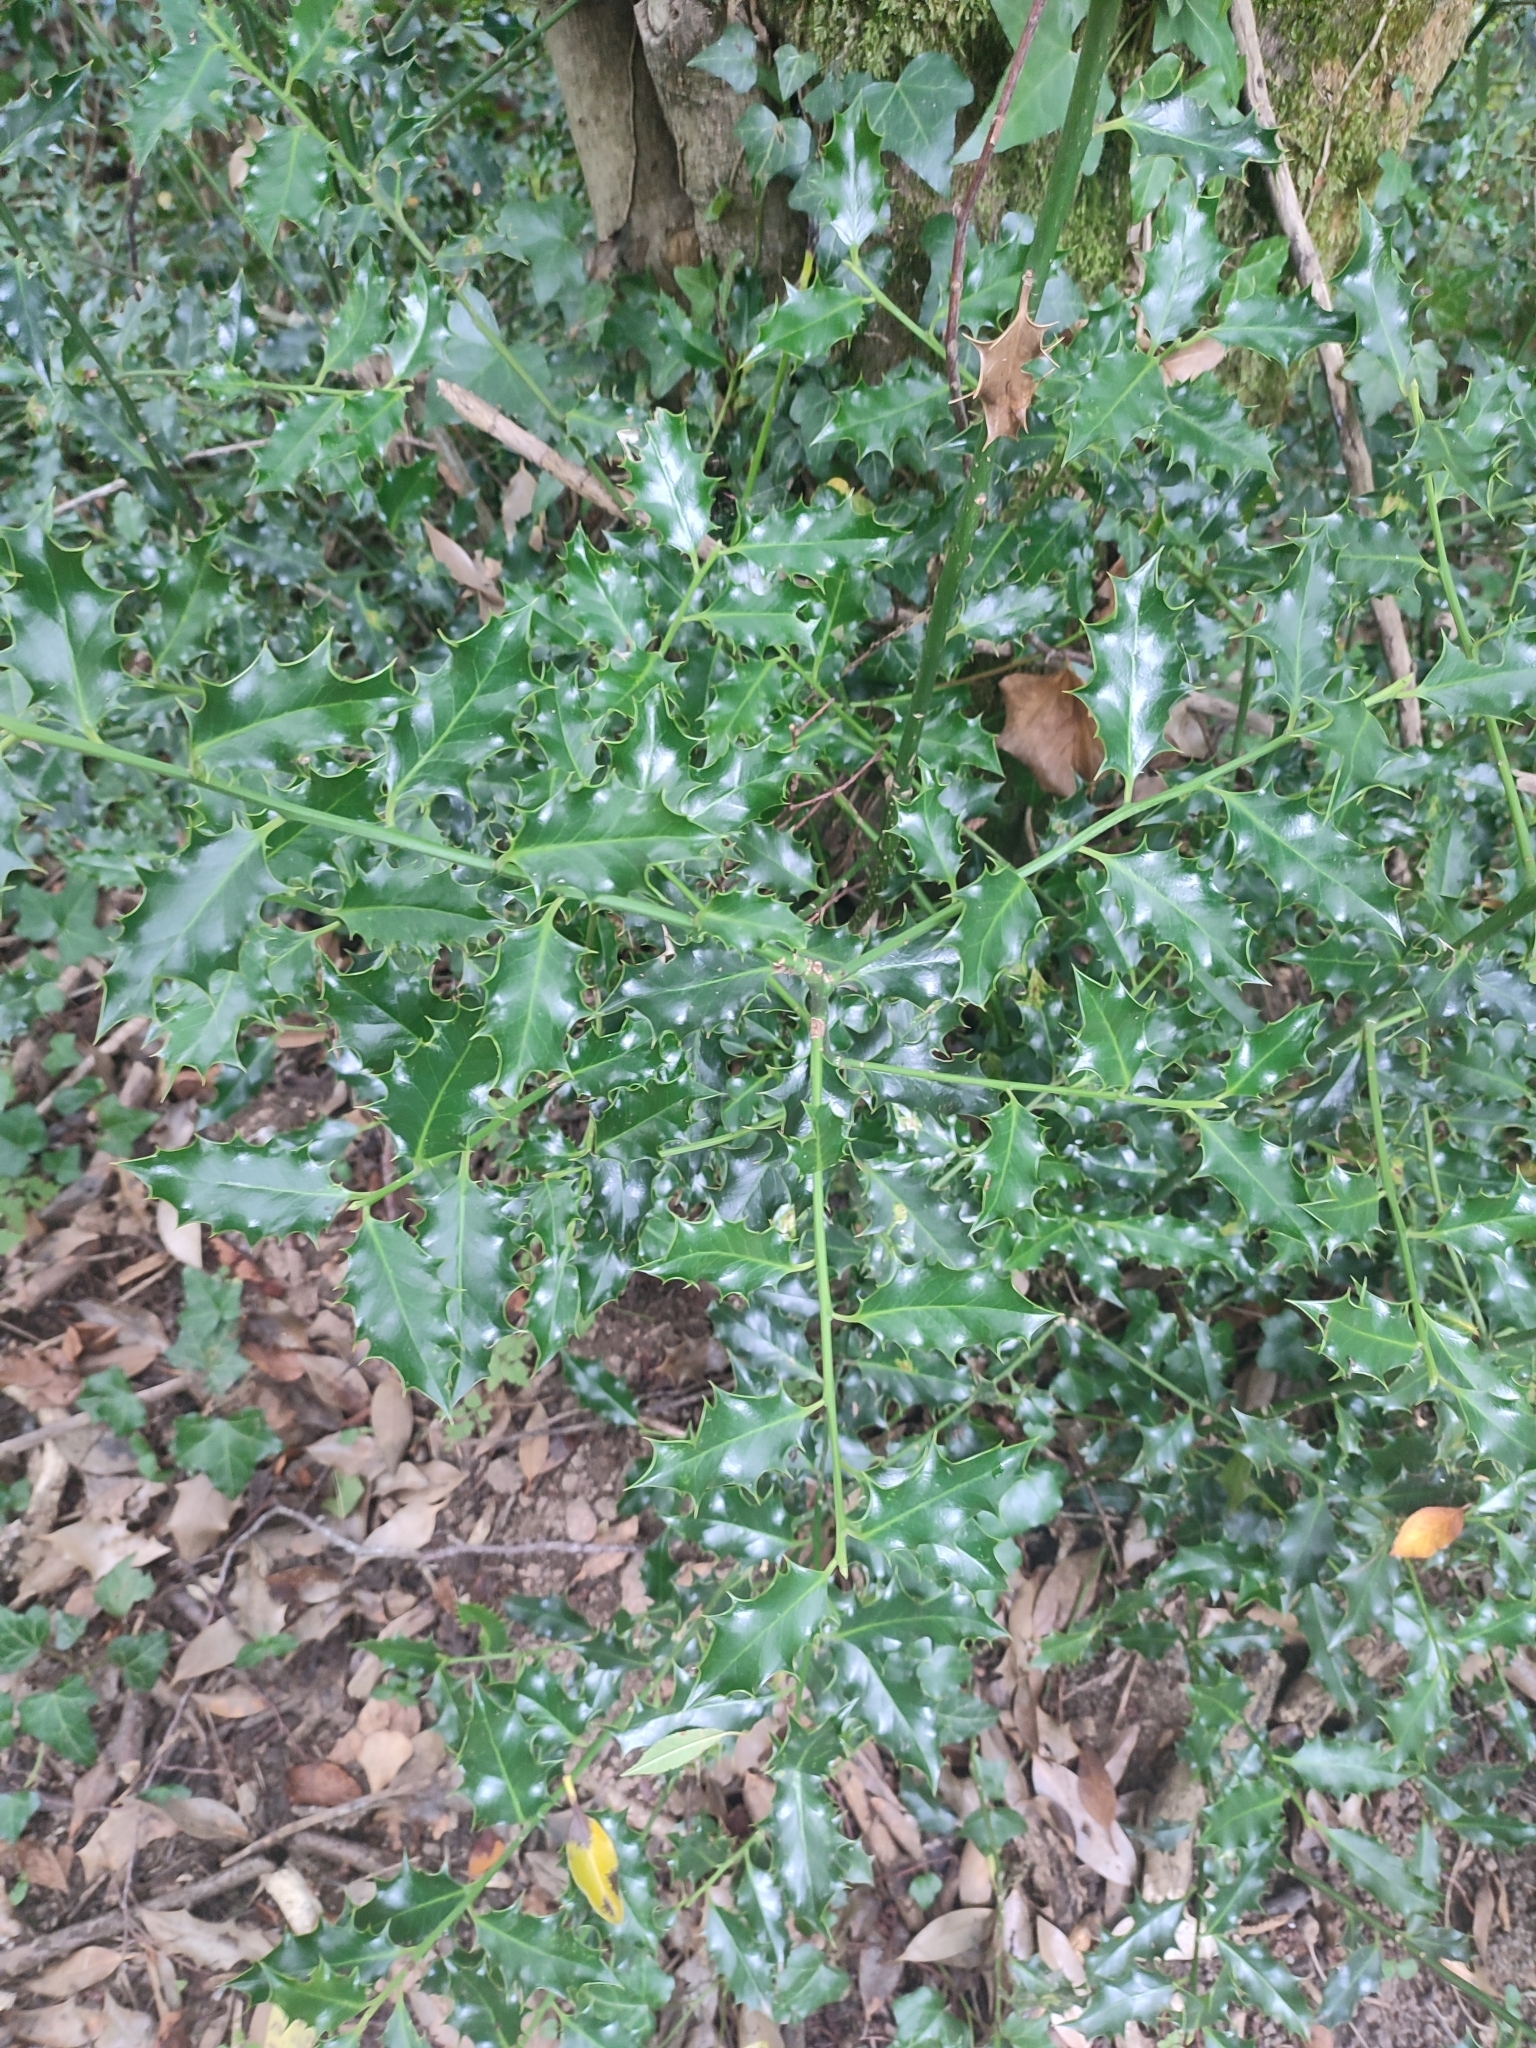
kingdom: Plantae
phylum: Tracheophyta
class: Magnoliopsida
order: Aquifoliales
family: Aquifoliaceae
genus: Ilex
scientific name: Ilex aquifolium
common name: English holly
